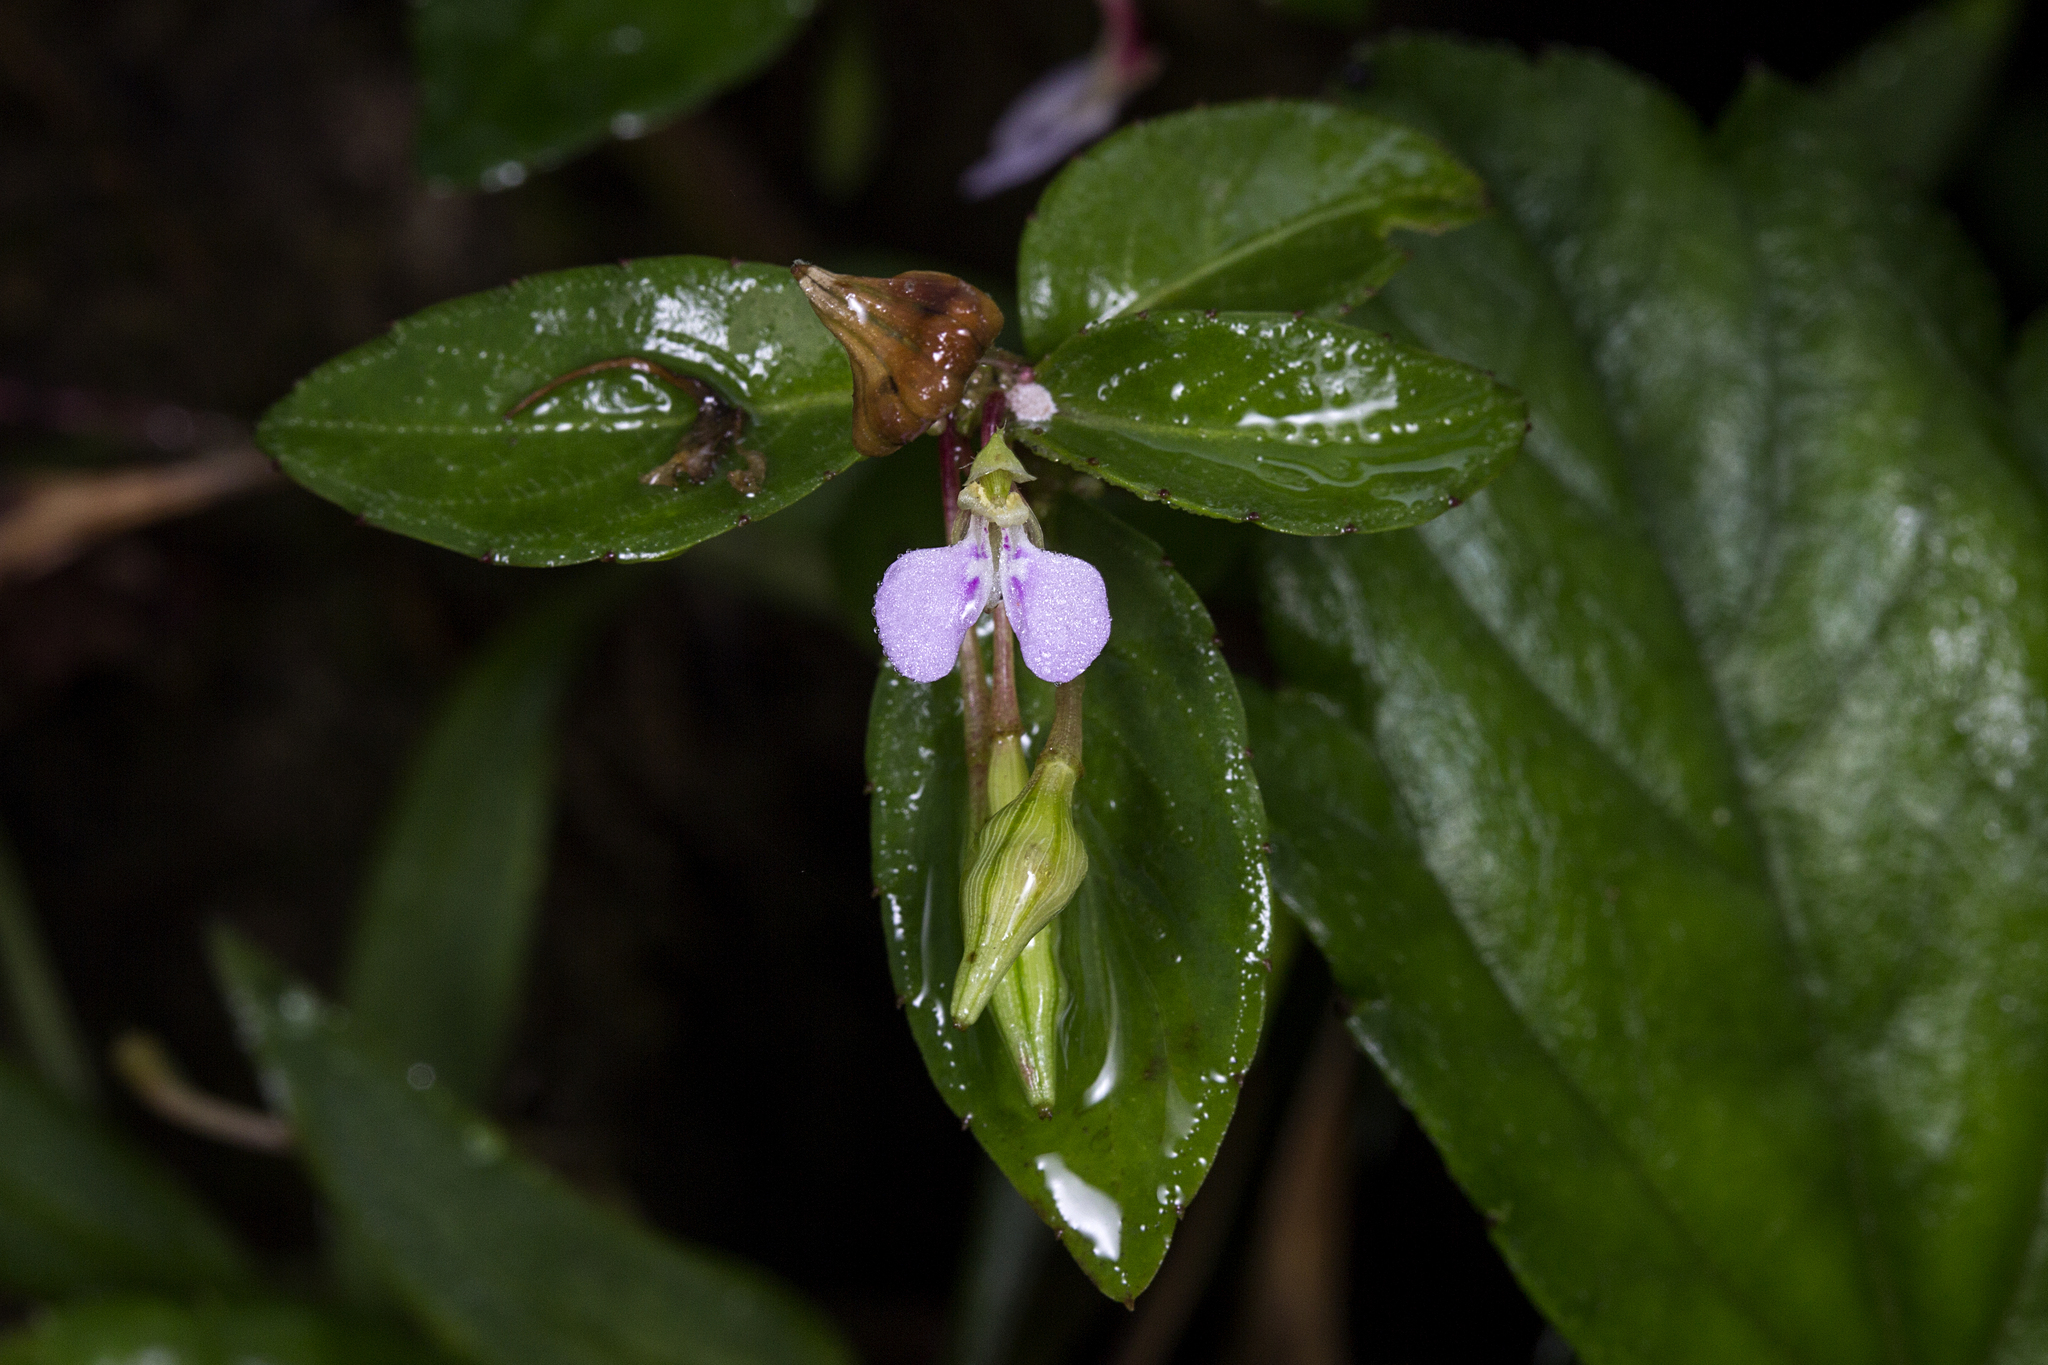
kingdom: Plantae
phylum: Tracheophyta
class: Magnoliopsida
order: Ericales
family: Balsaminaceae
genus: Impatiens
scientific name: Impatiens minor
